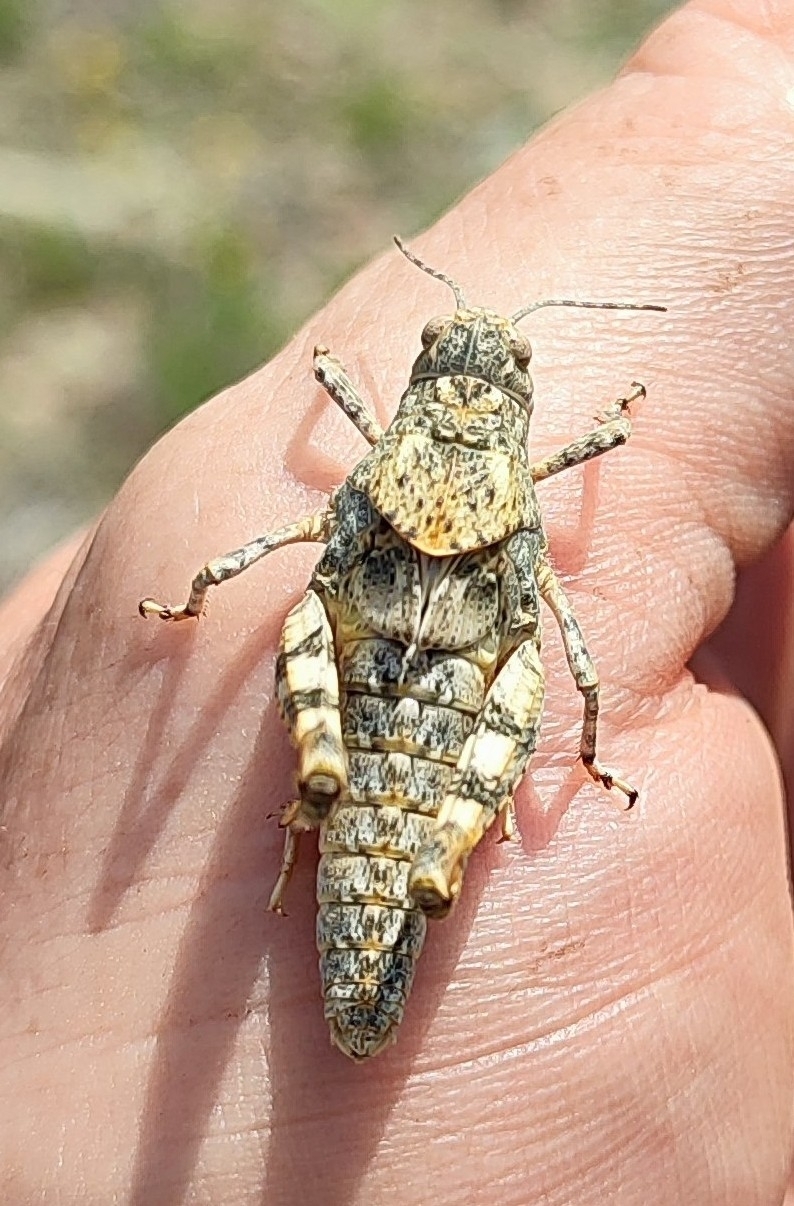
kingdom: Animalia
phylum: Arthropoda
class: Insecta
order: Orthoptera
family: Acrididae
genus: Angaracris
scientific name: Angaracris barabensis
